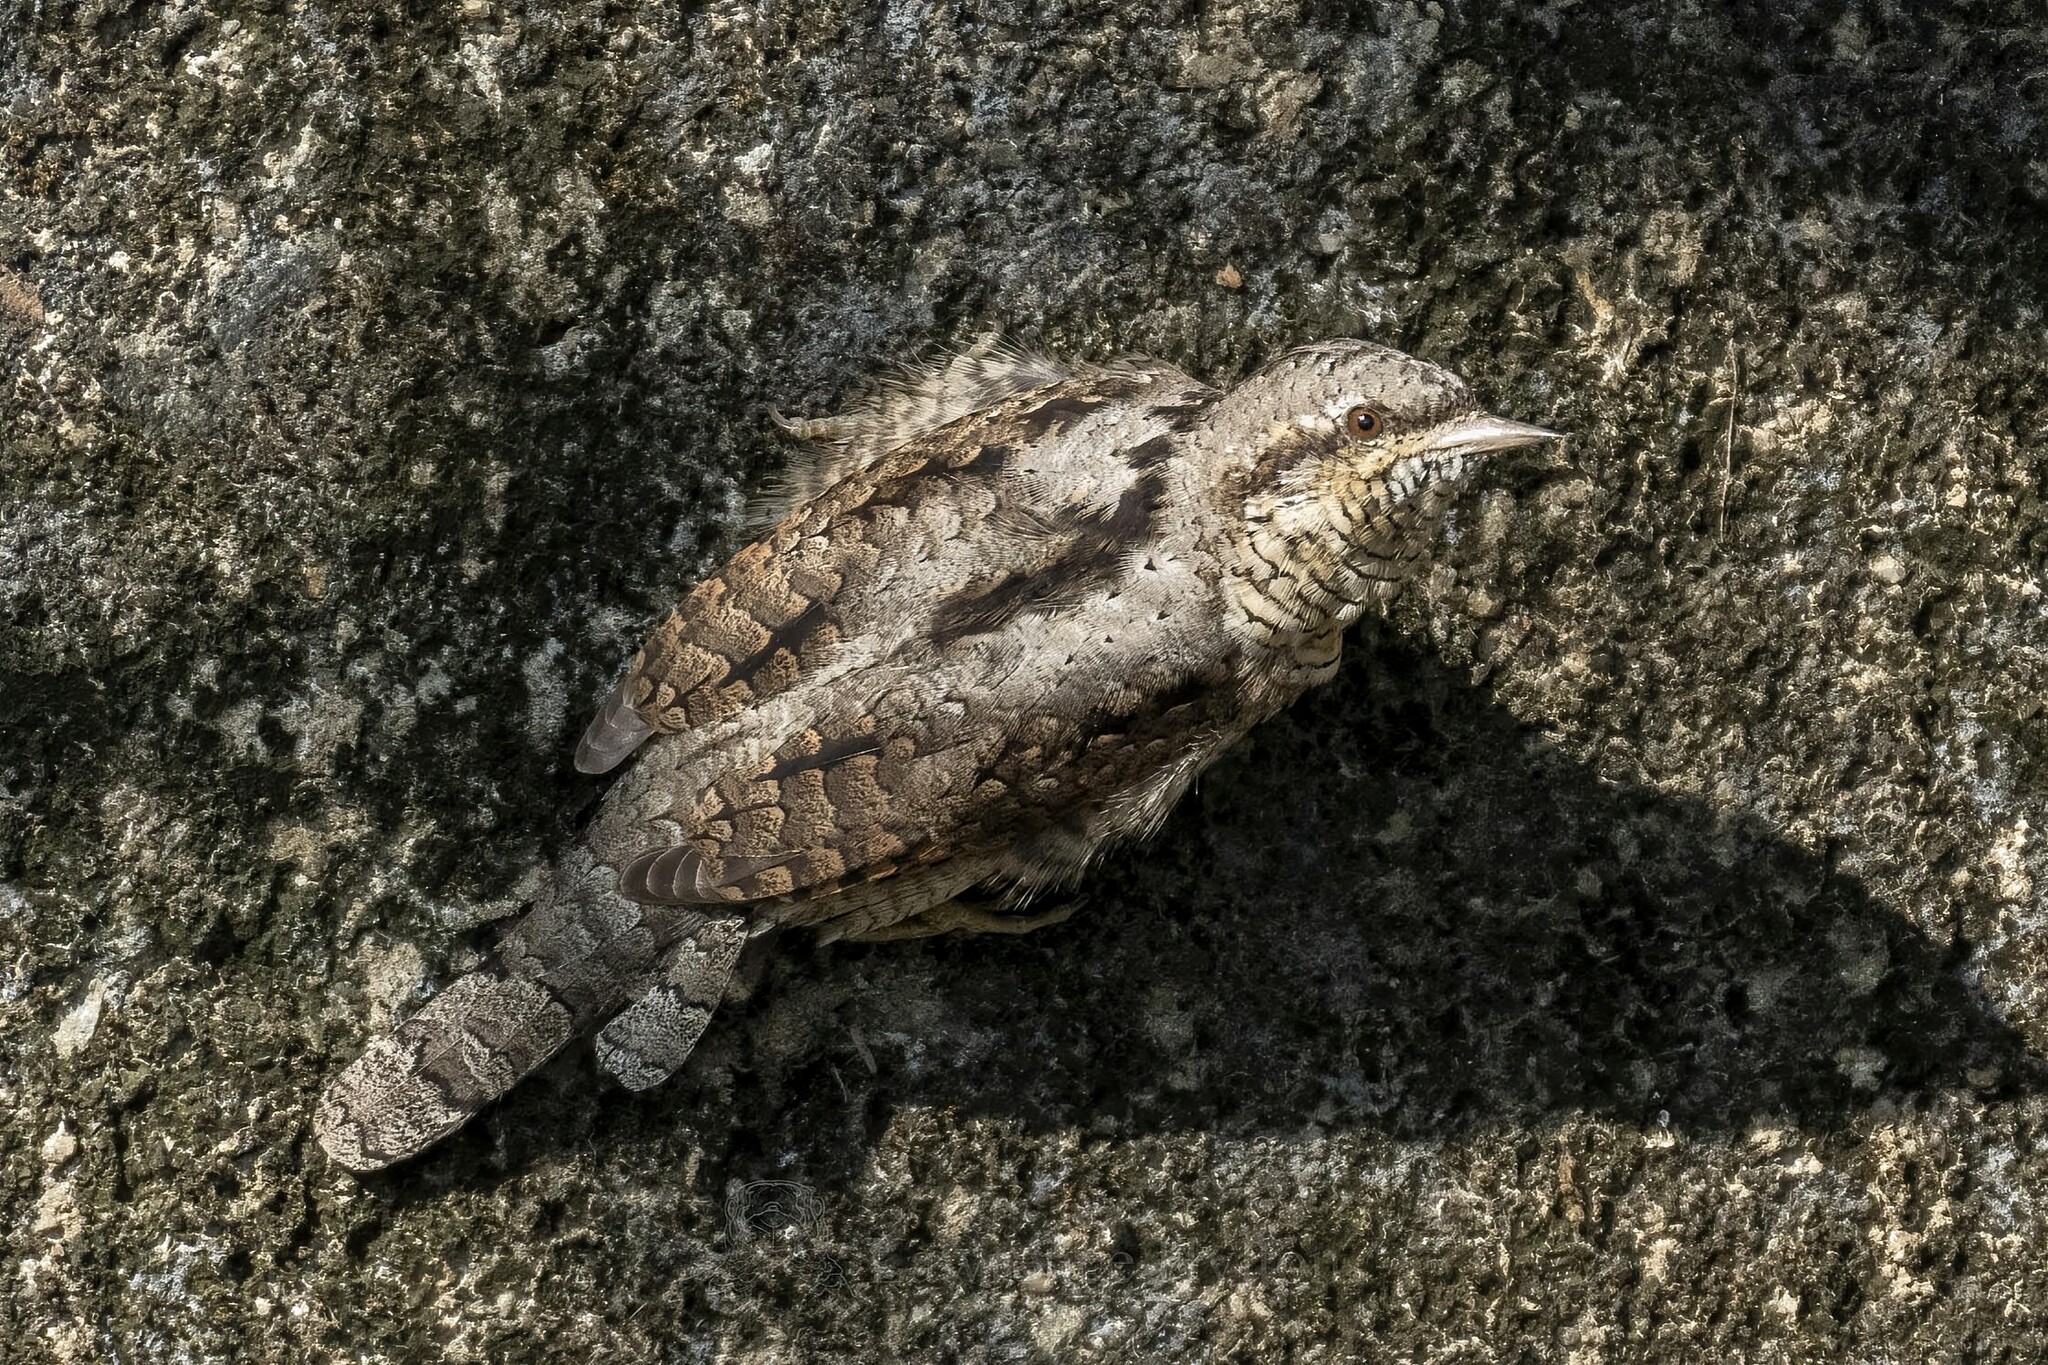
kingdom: Animalia
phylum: Chordata
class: Aves
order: Piciformes
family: Picidae
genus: Jynx
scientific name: Jynx torquilla
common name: Eurasian wryneck
